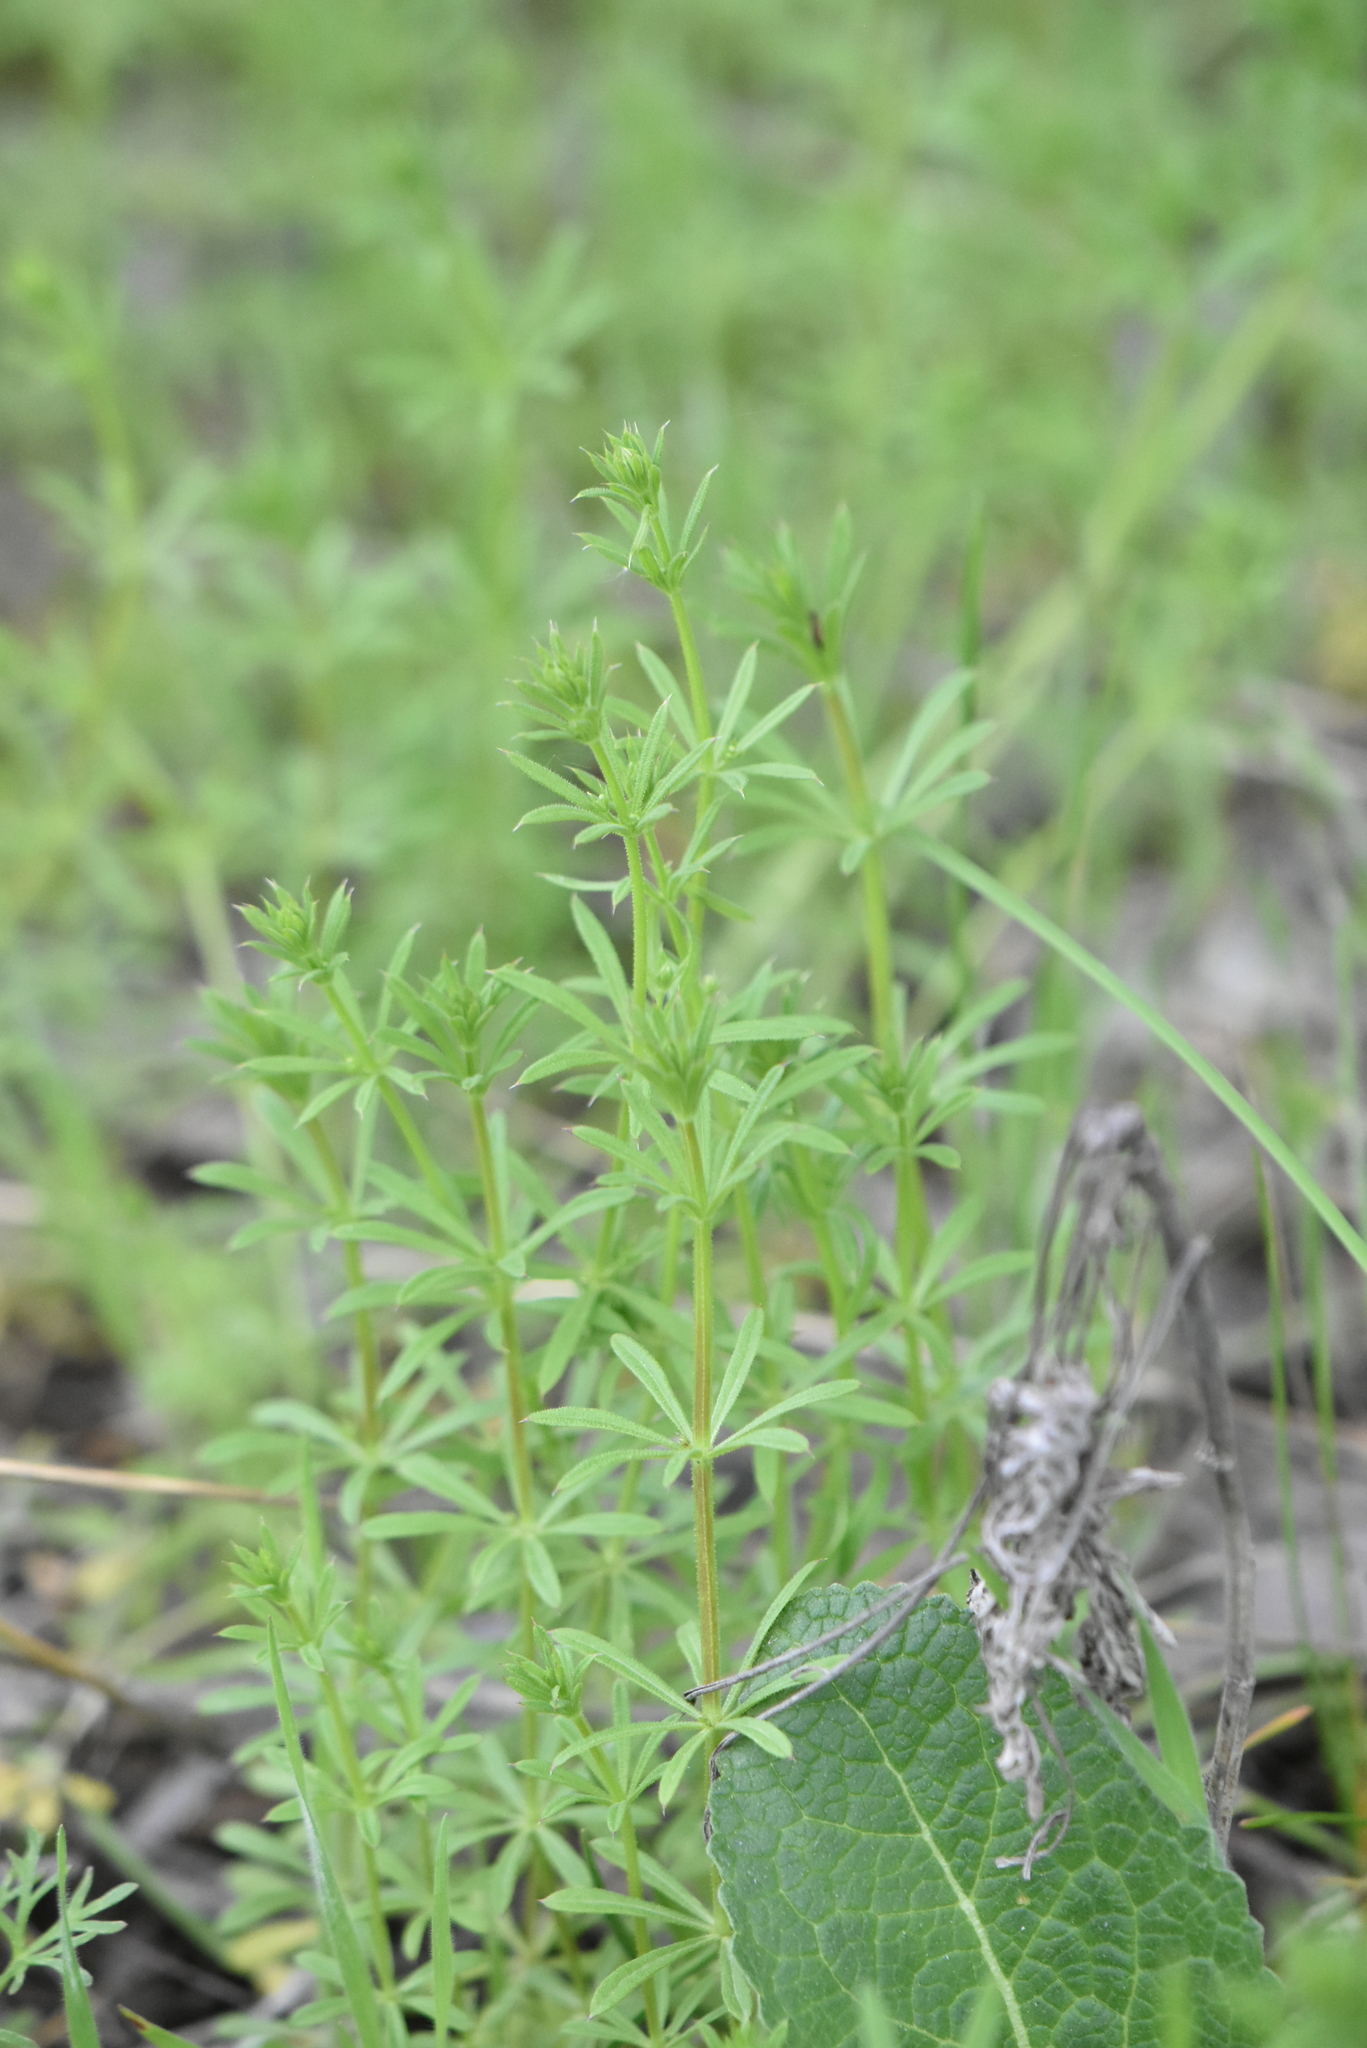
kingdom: Plantae
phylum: Tracheophyta
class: Magnoliopsida
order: Gentianales
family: Rubiaceae
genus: Galium
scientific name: Galium aparine
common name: Cleavers
